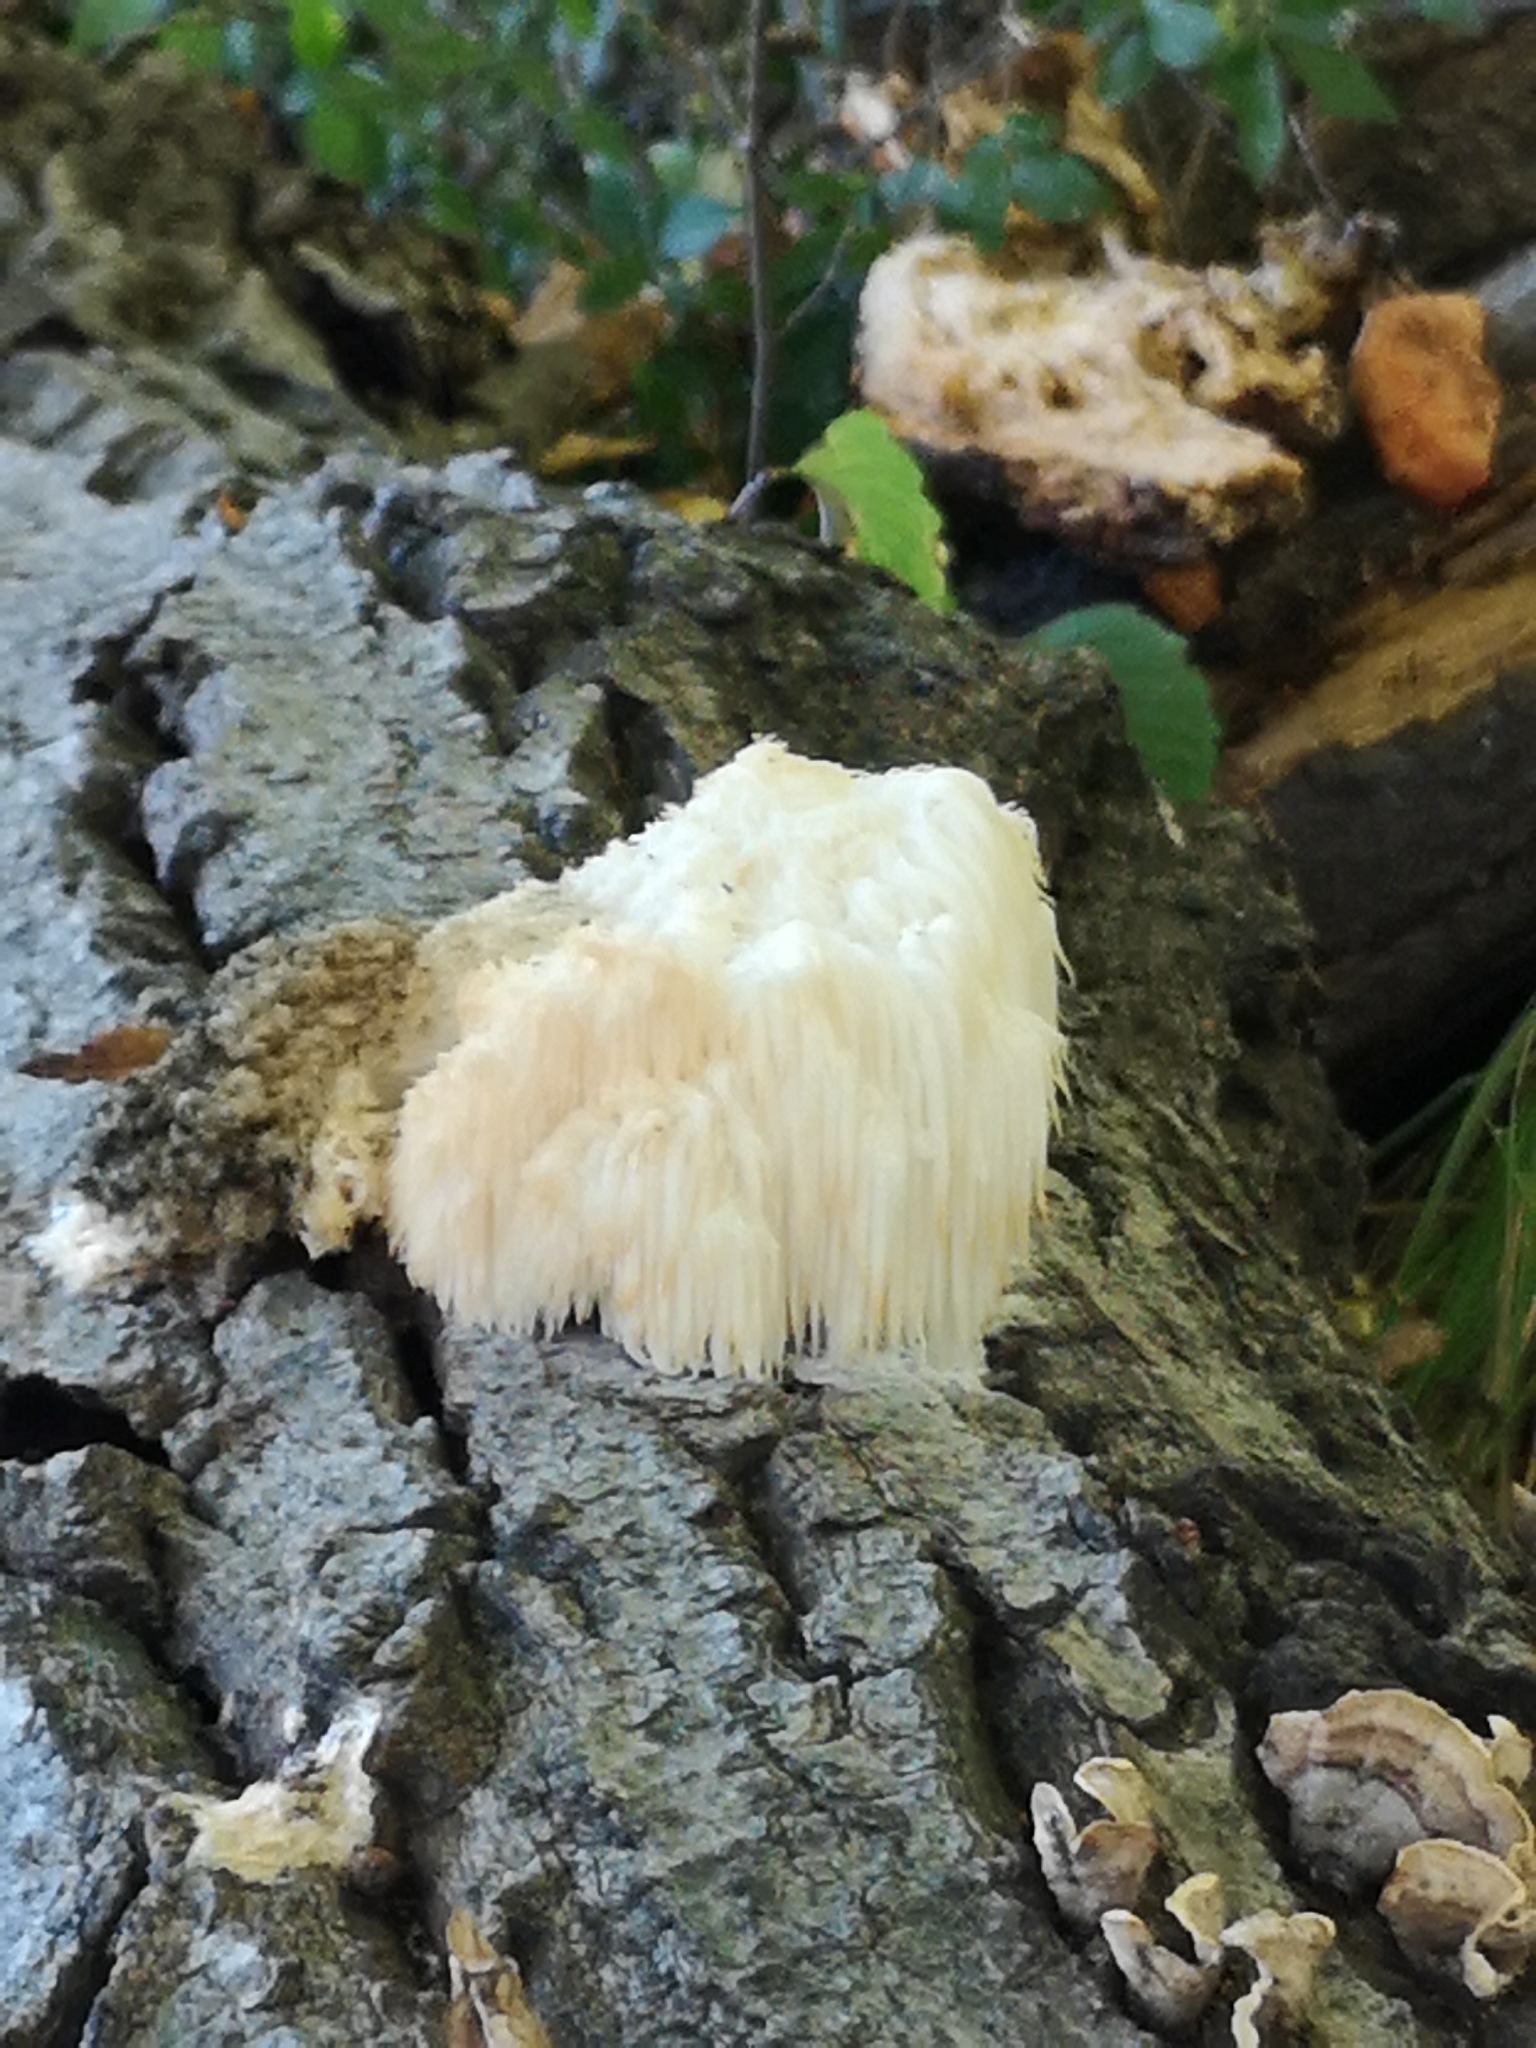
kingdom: Fungi
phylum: Basidiomycota
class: Agaricomycetes
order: Russulales
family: Hericiaceae
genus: Hericium
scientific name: Hericium erinaceus
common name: Bearded tooth
